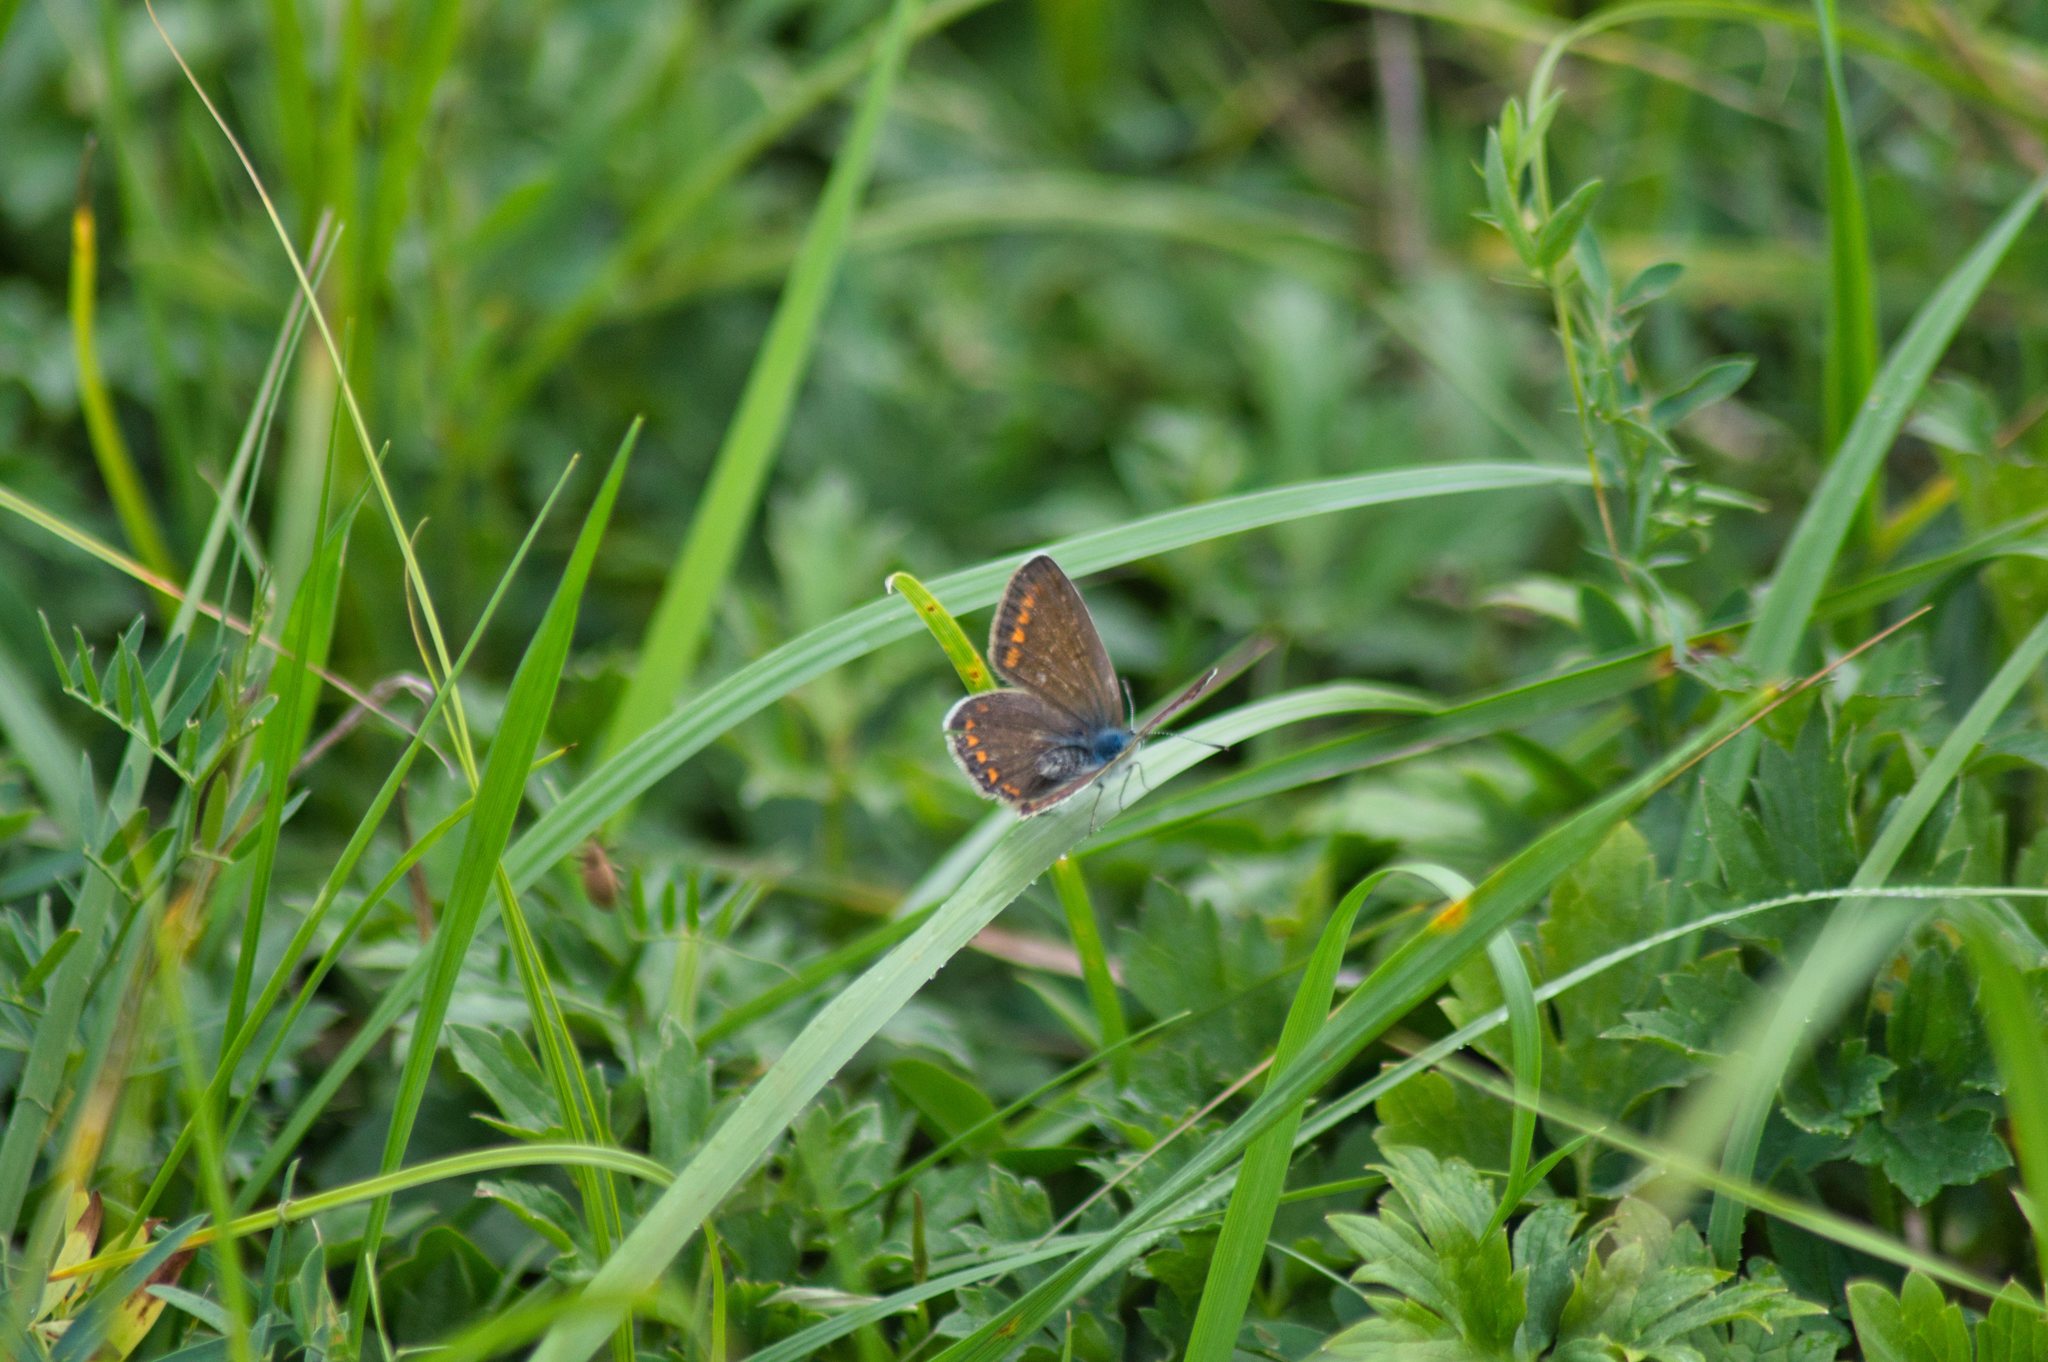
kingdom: Animalia
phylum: Arthropoda
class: Insecta
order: Lepidoptera
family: Lycaenidae
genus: Polyommatus
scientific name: Polyommatus icarus
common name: Common blue
